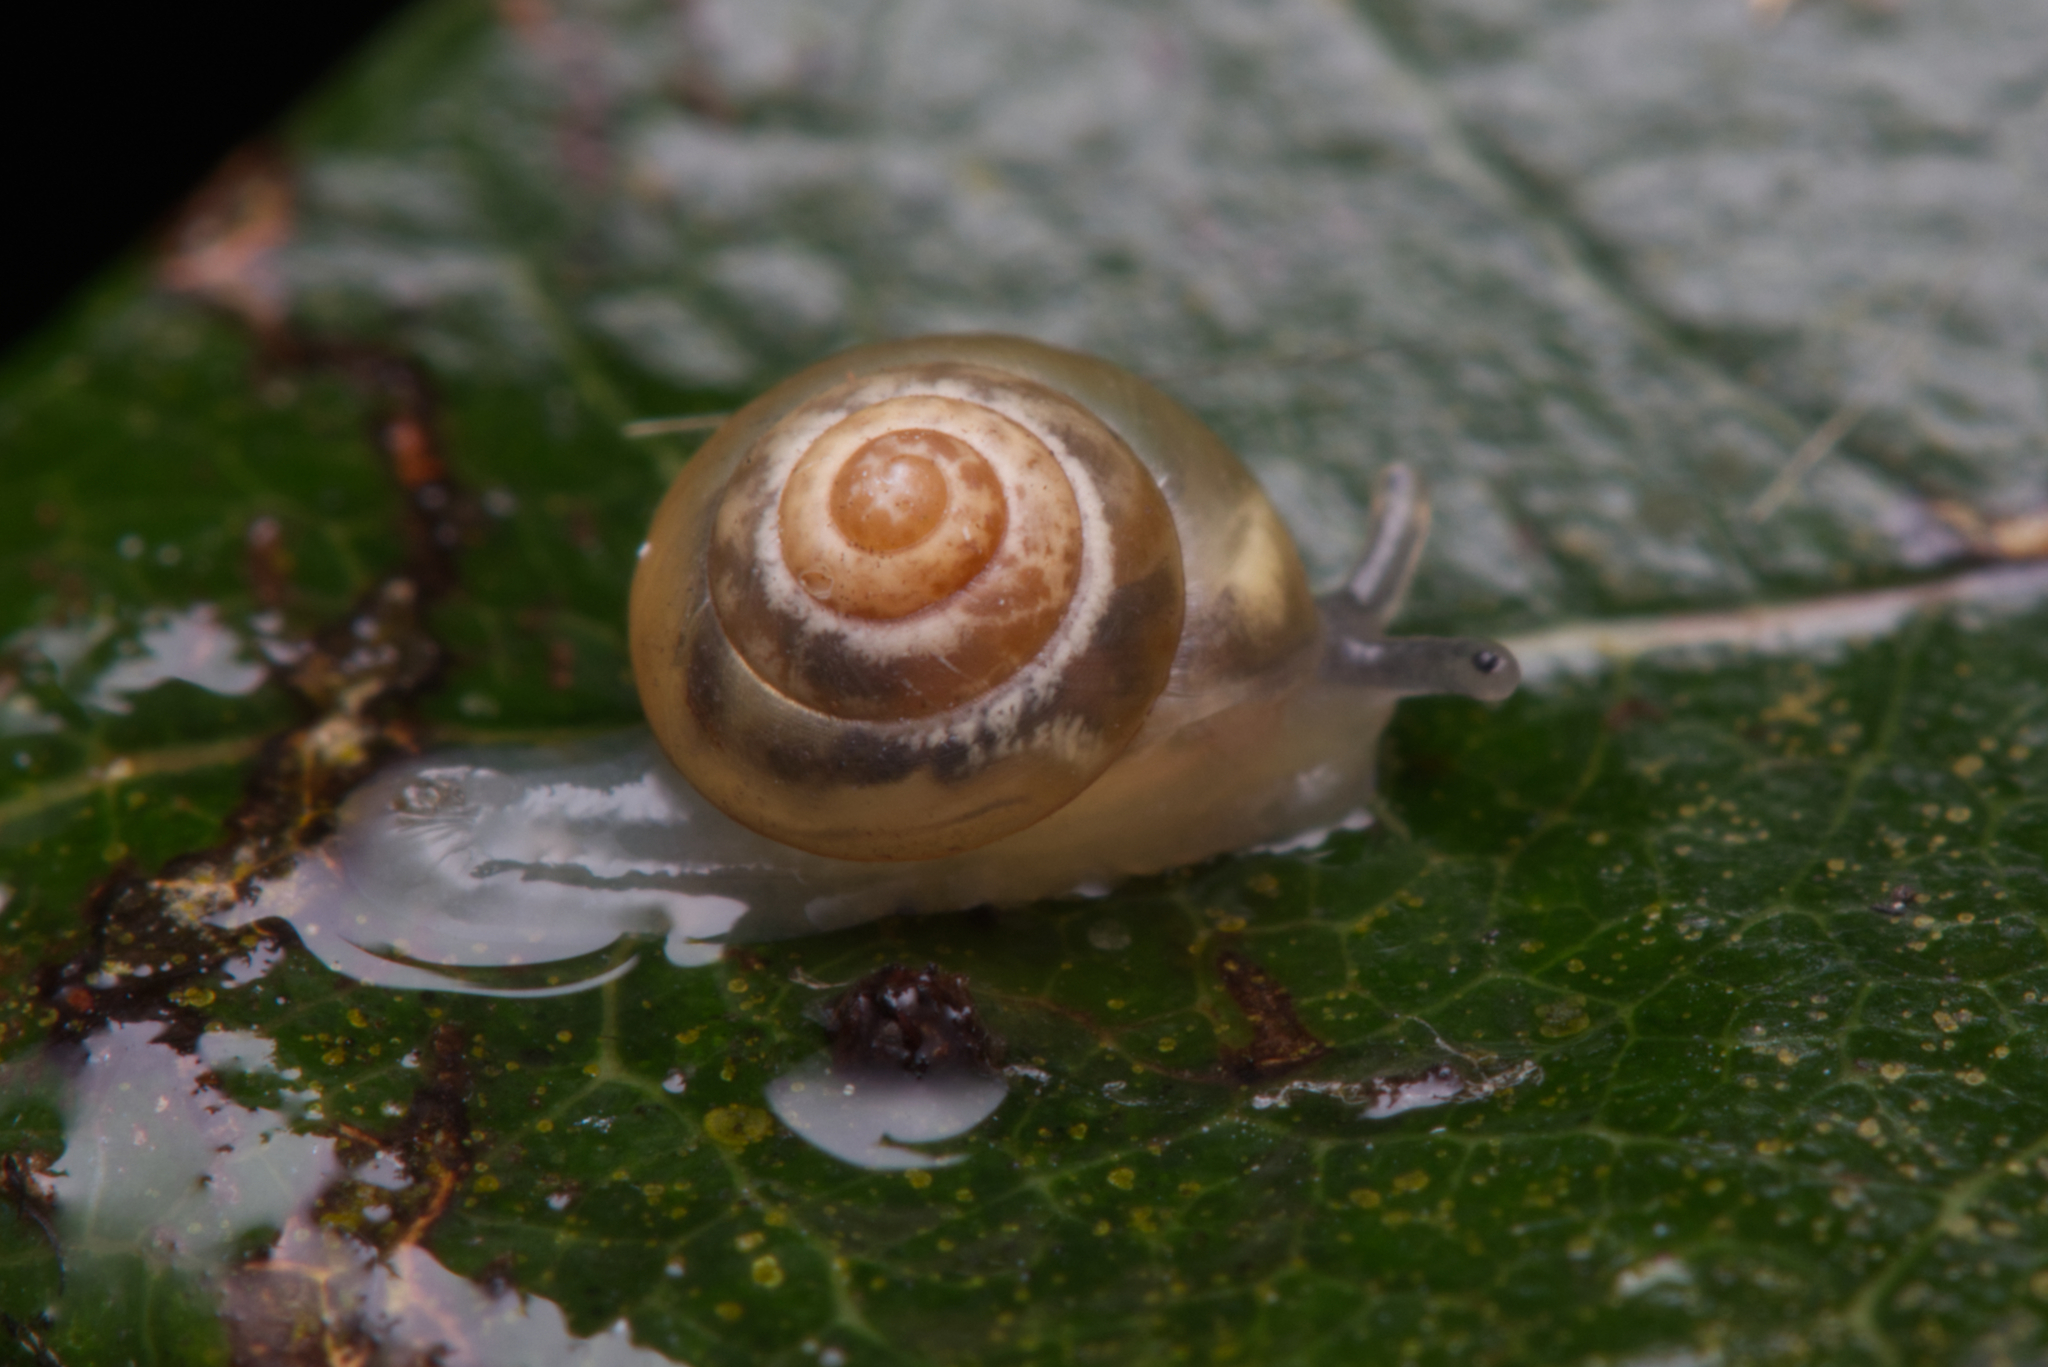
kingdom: Animalia
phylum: Mollusca
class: Gastropoda
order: Stylommatophora
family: Euconulidae
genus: Coneuplecta
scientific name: Coneuplecta calculosa
